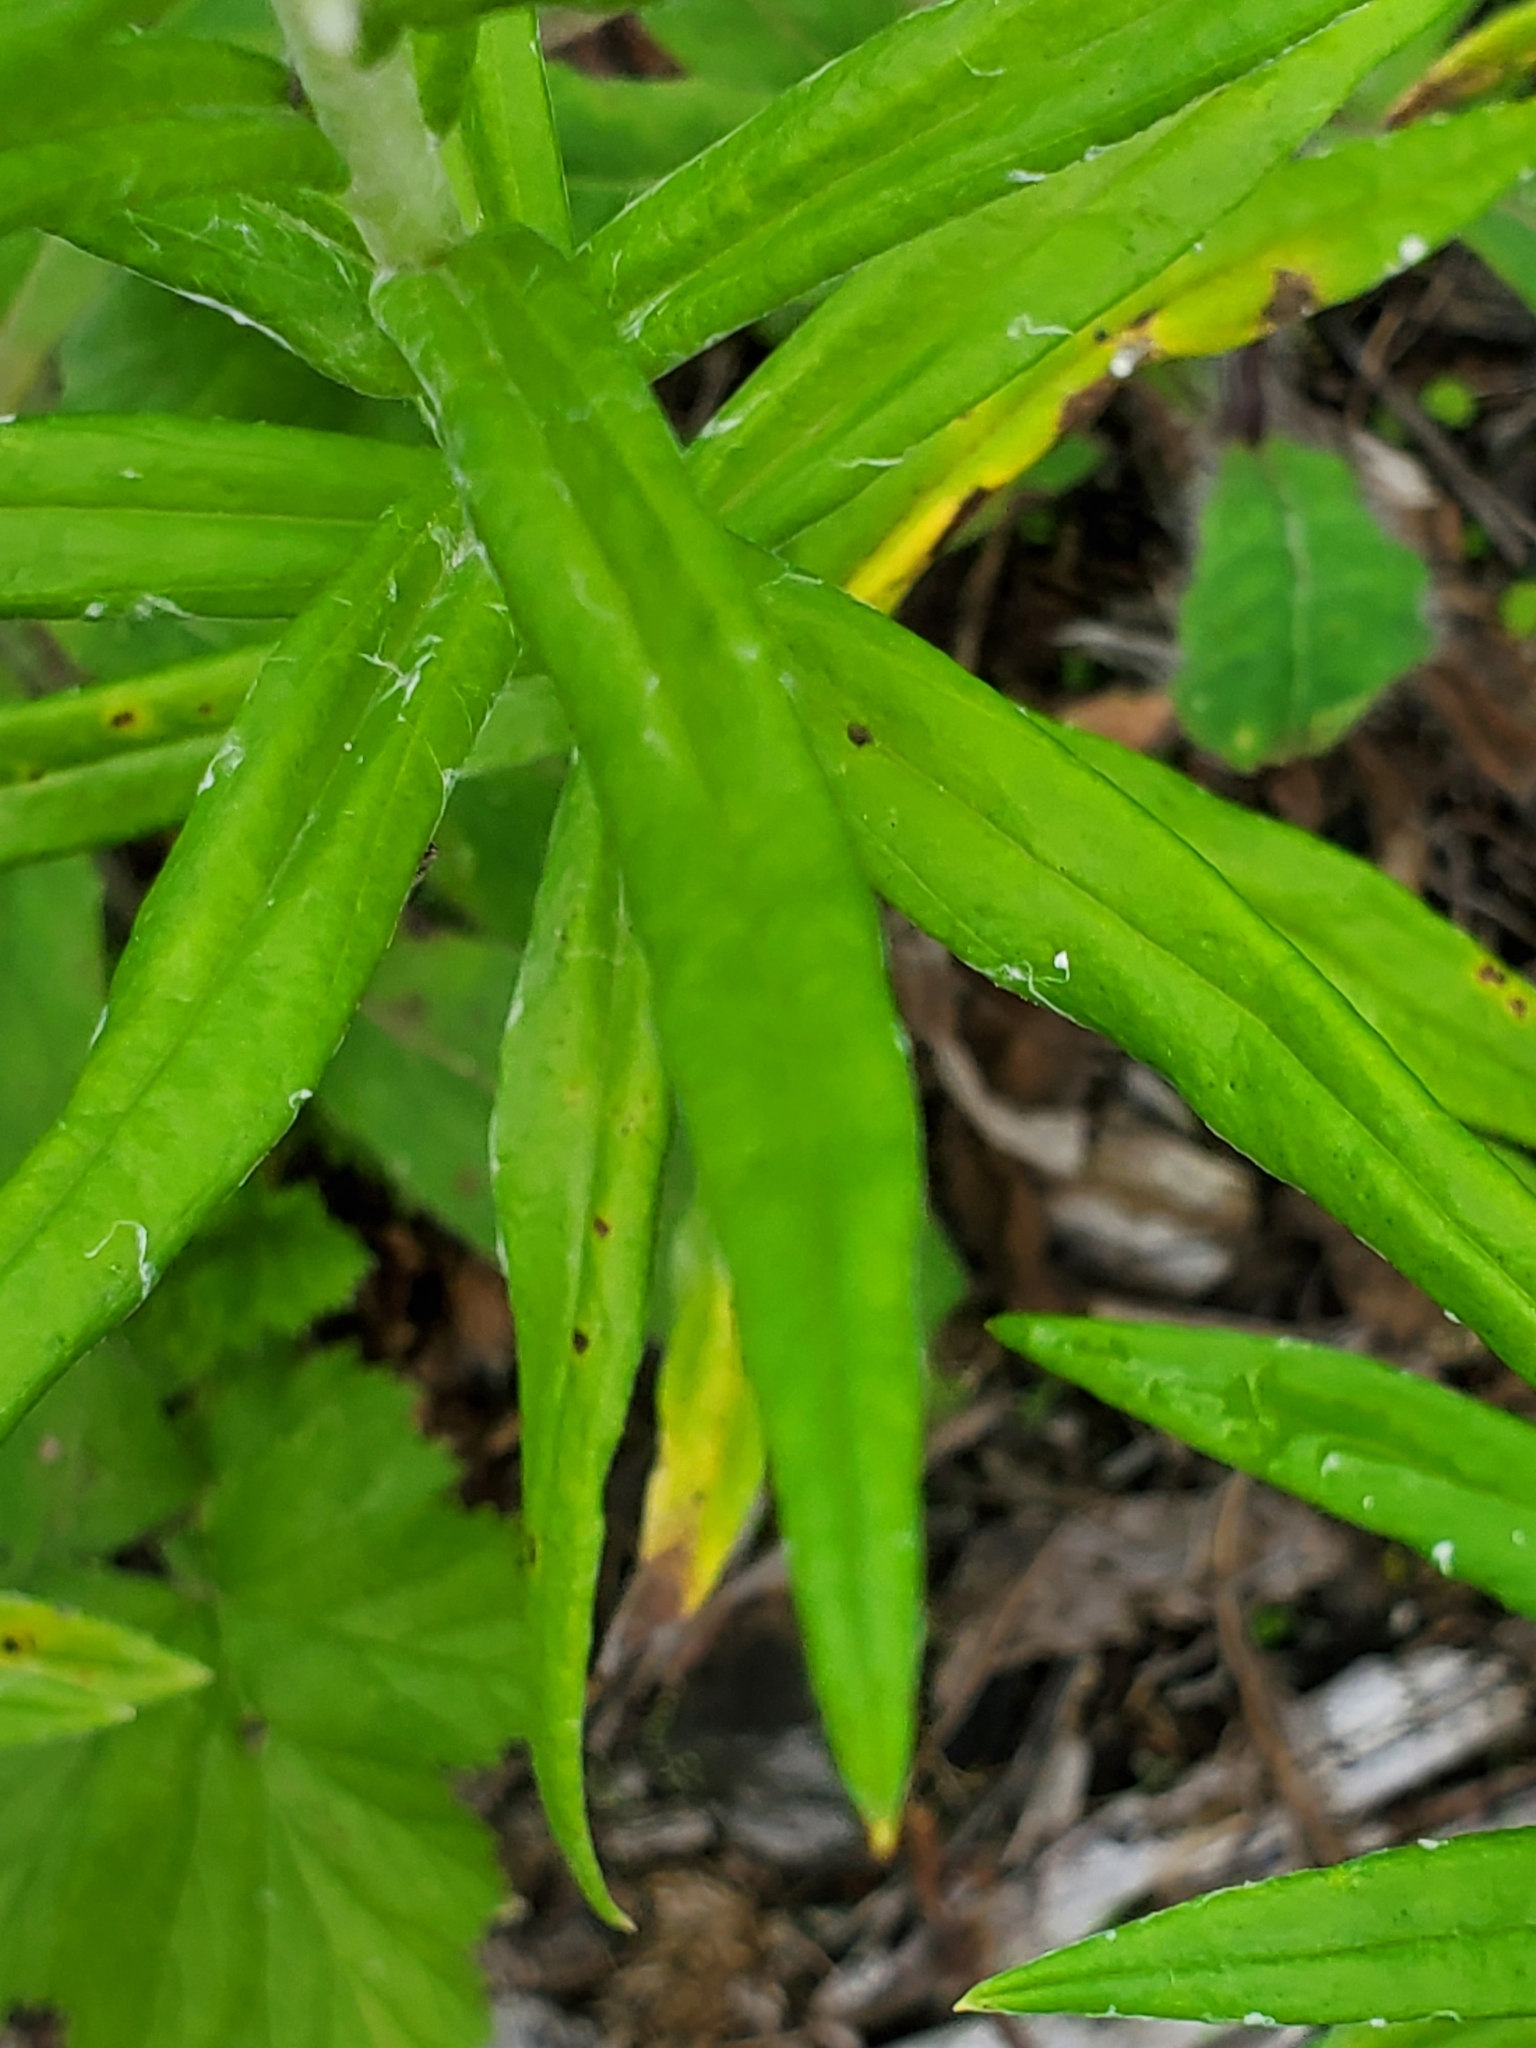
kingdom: Plantae
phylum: Tracheophyta
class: Magnoliopsida
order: Asterales
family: Asteraceae
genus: Anaphalis
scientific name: Anaphalis margaritacea
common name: Pearly everlasting
